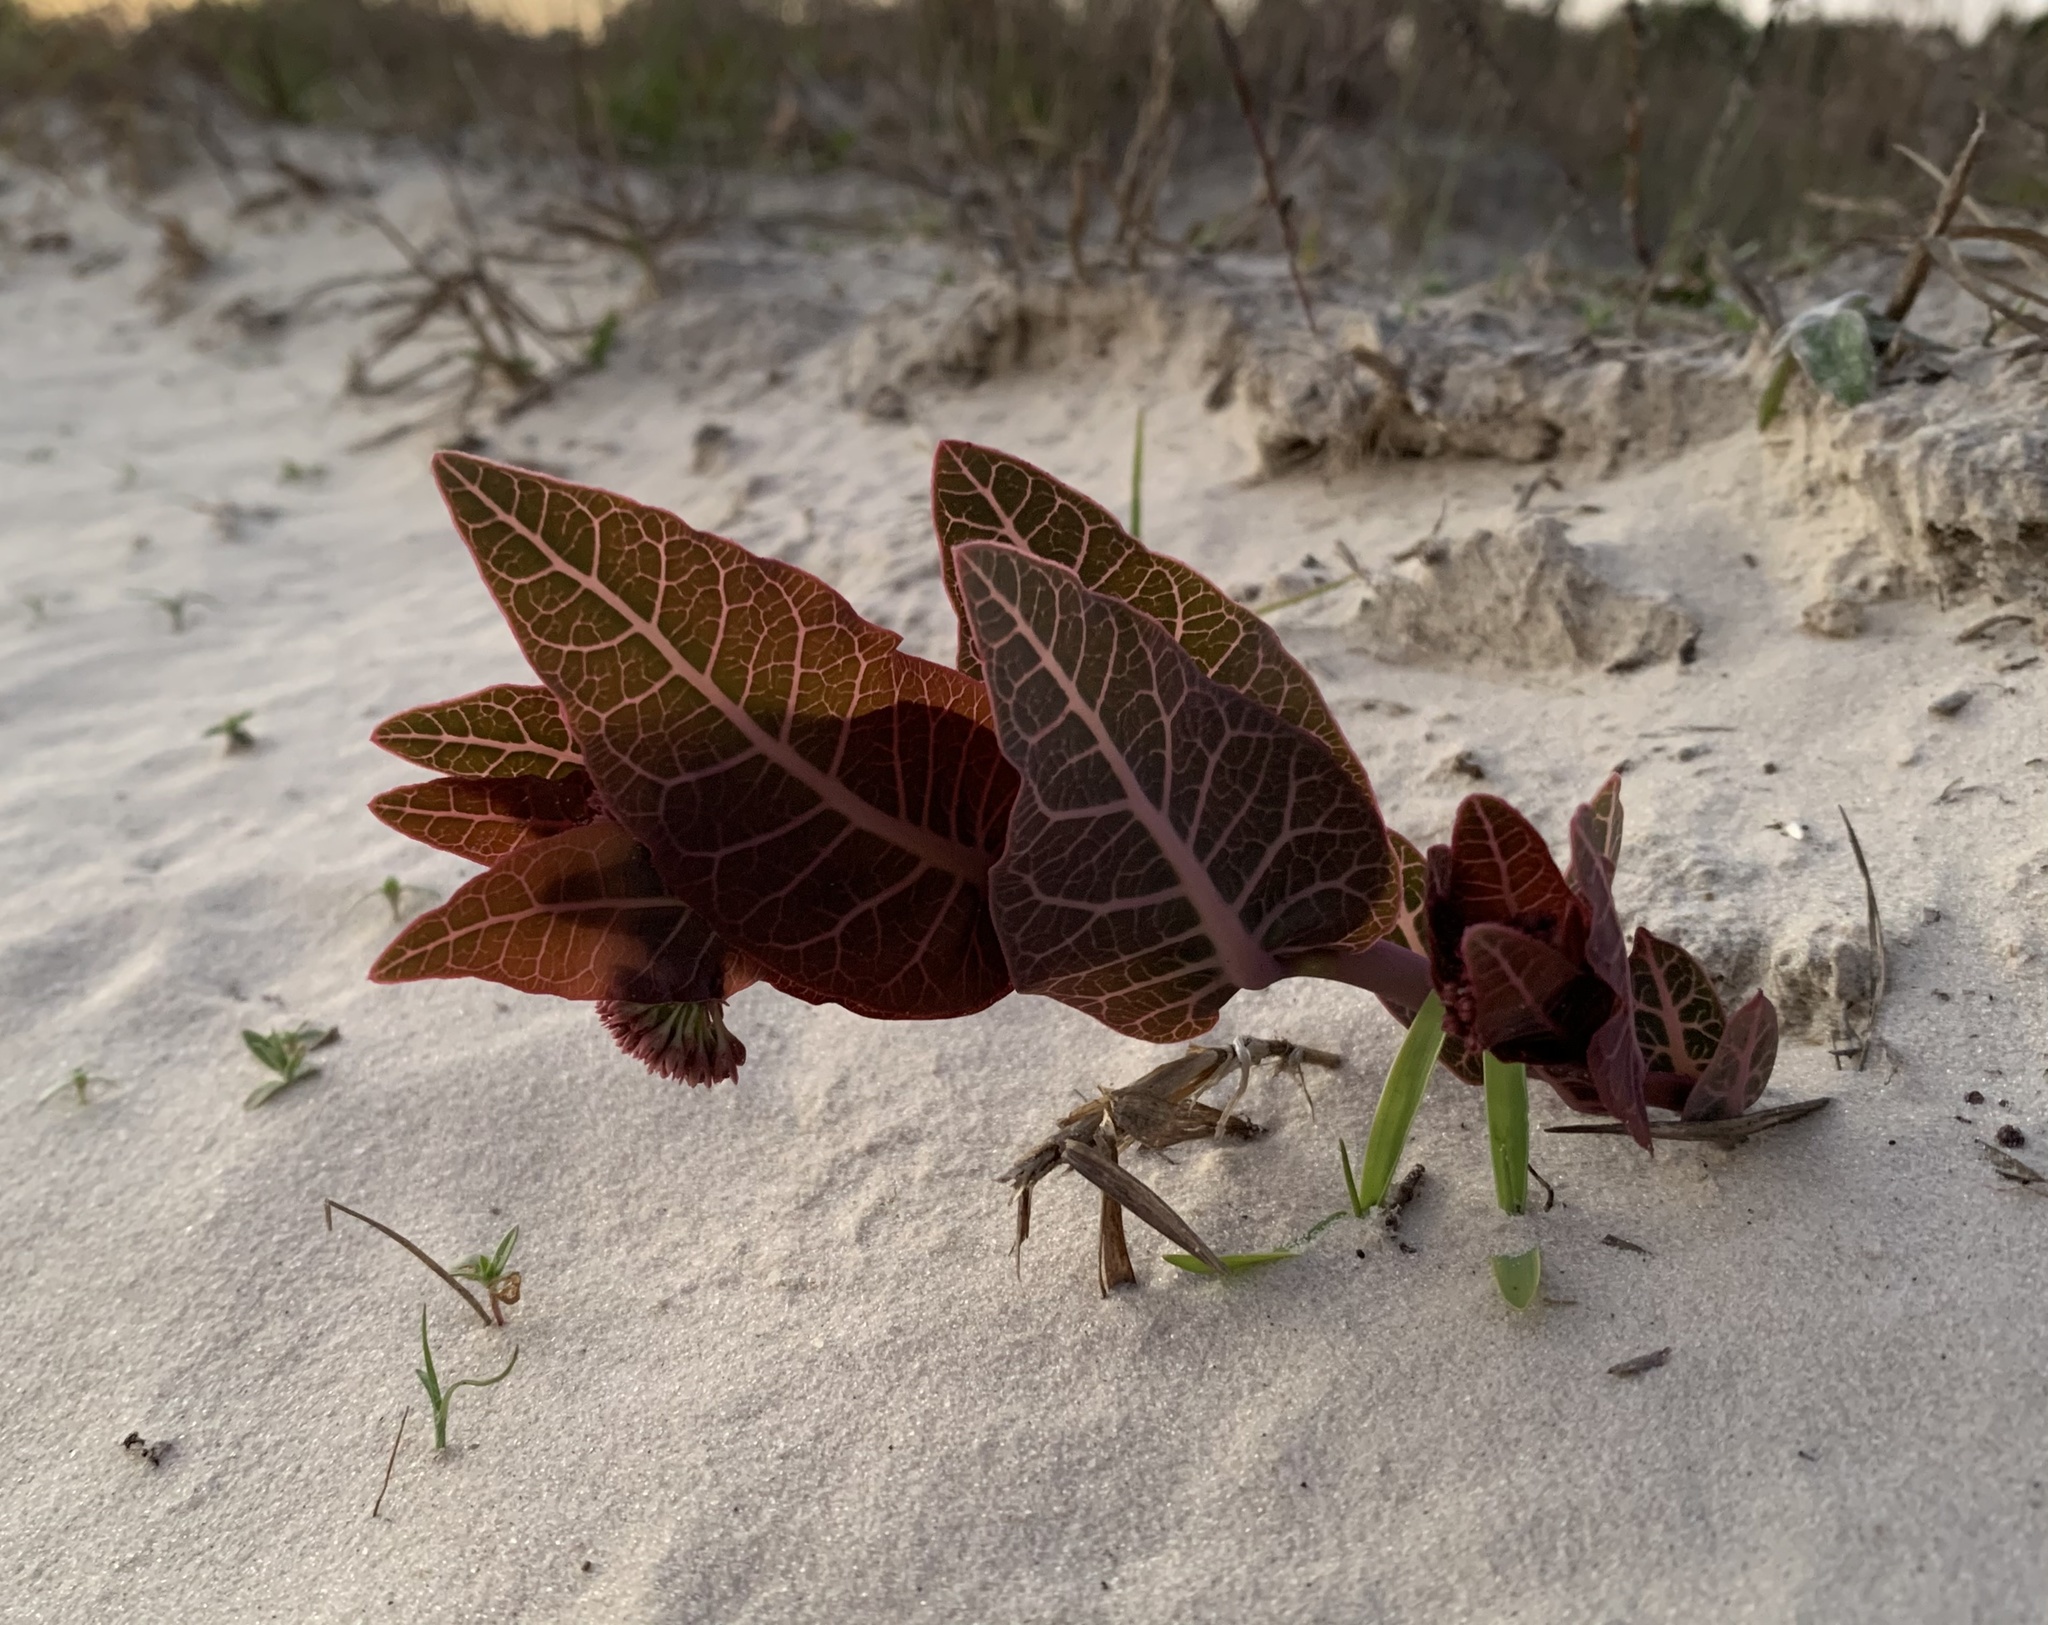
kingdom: Plantae
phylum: Tracheophyta
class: Magnoliopsida
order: Gentianales
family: Apocynaceae
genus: Asclepias
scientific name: Asclepias humistrata
